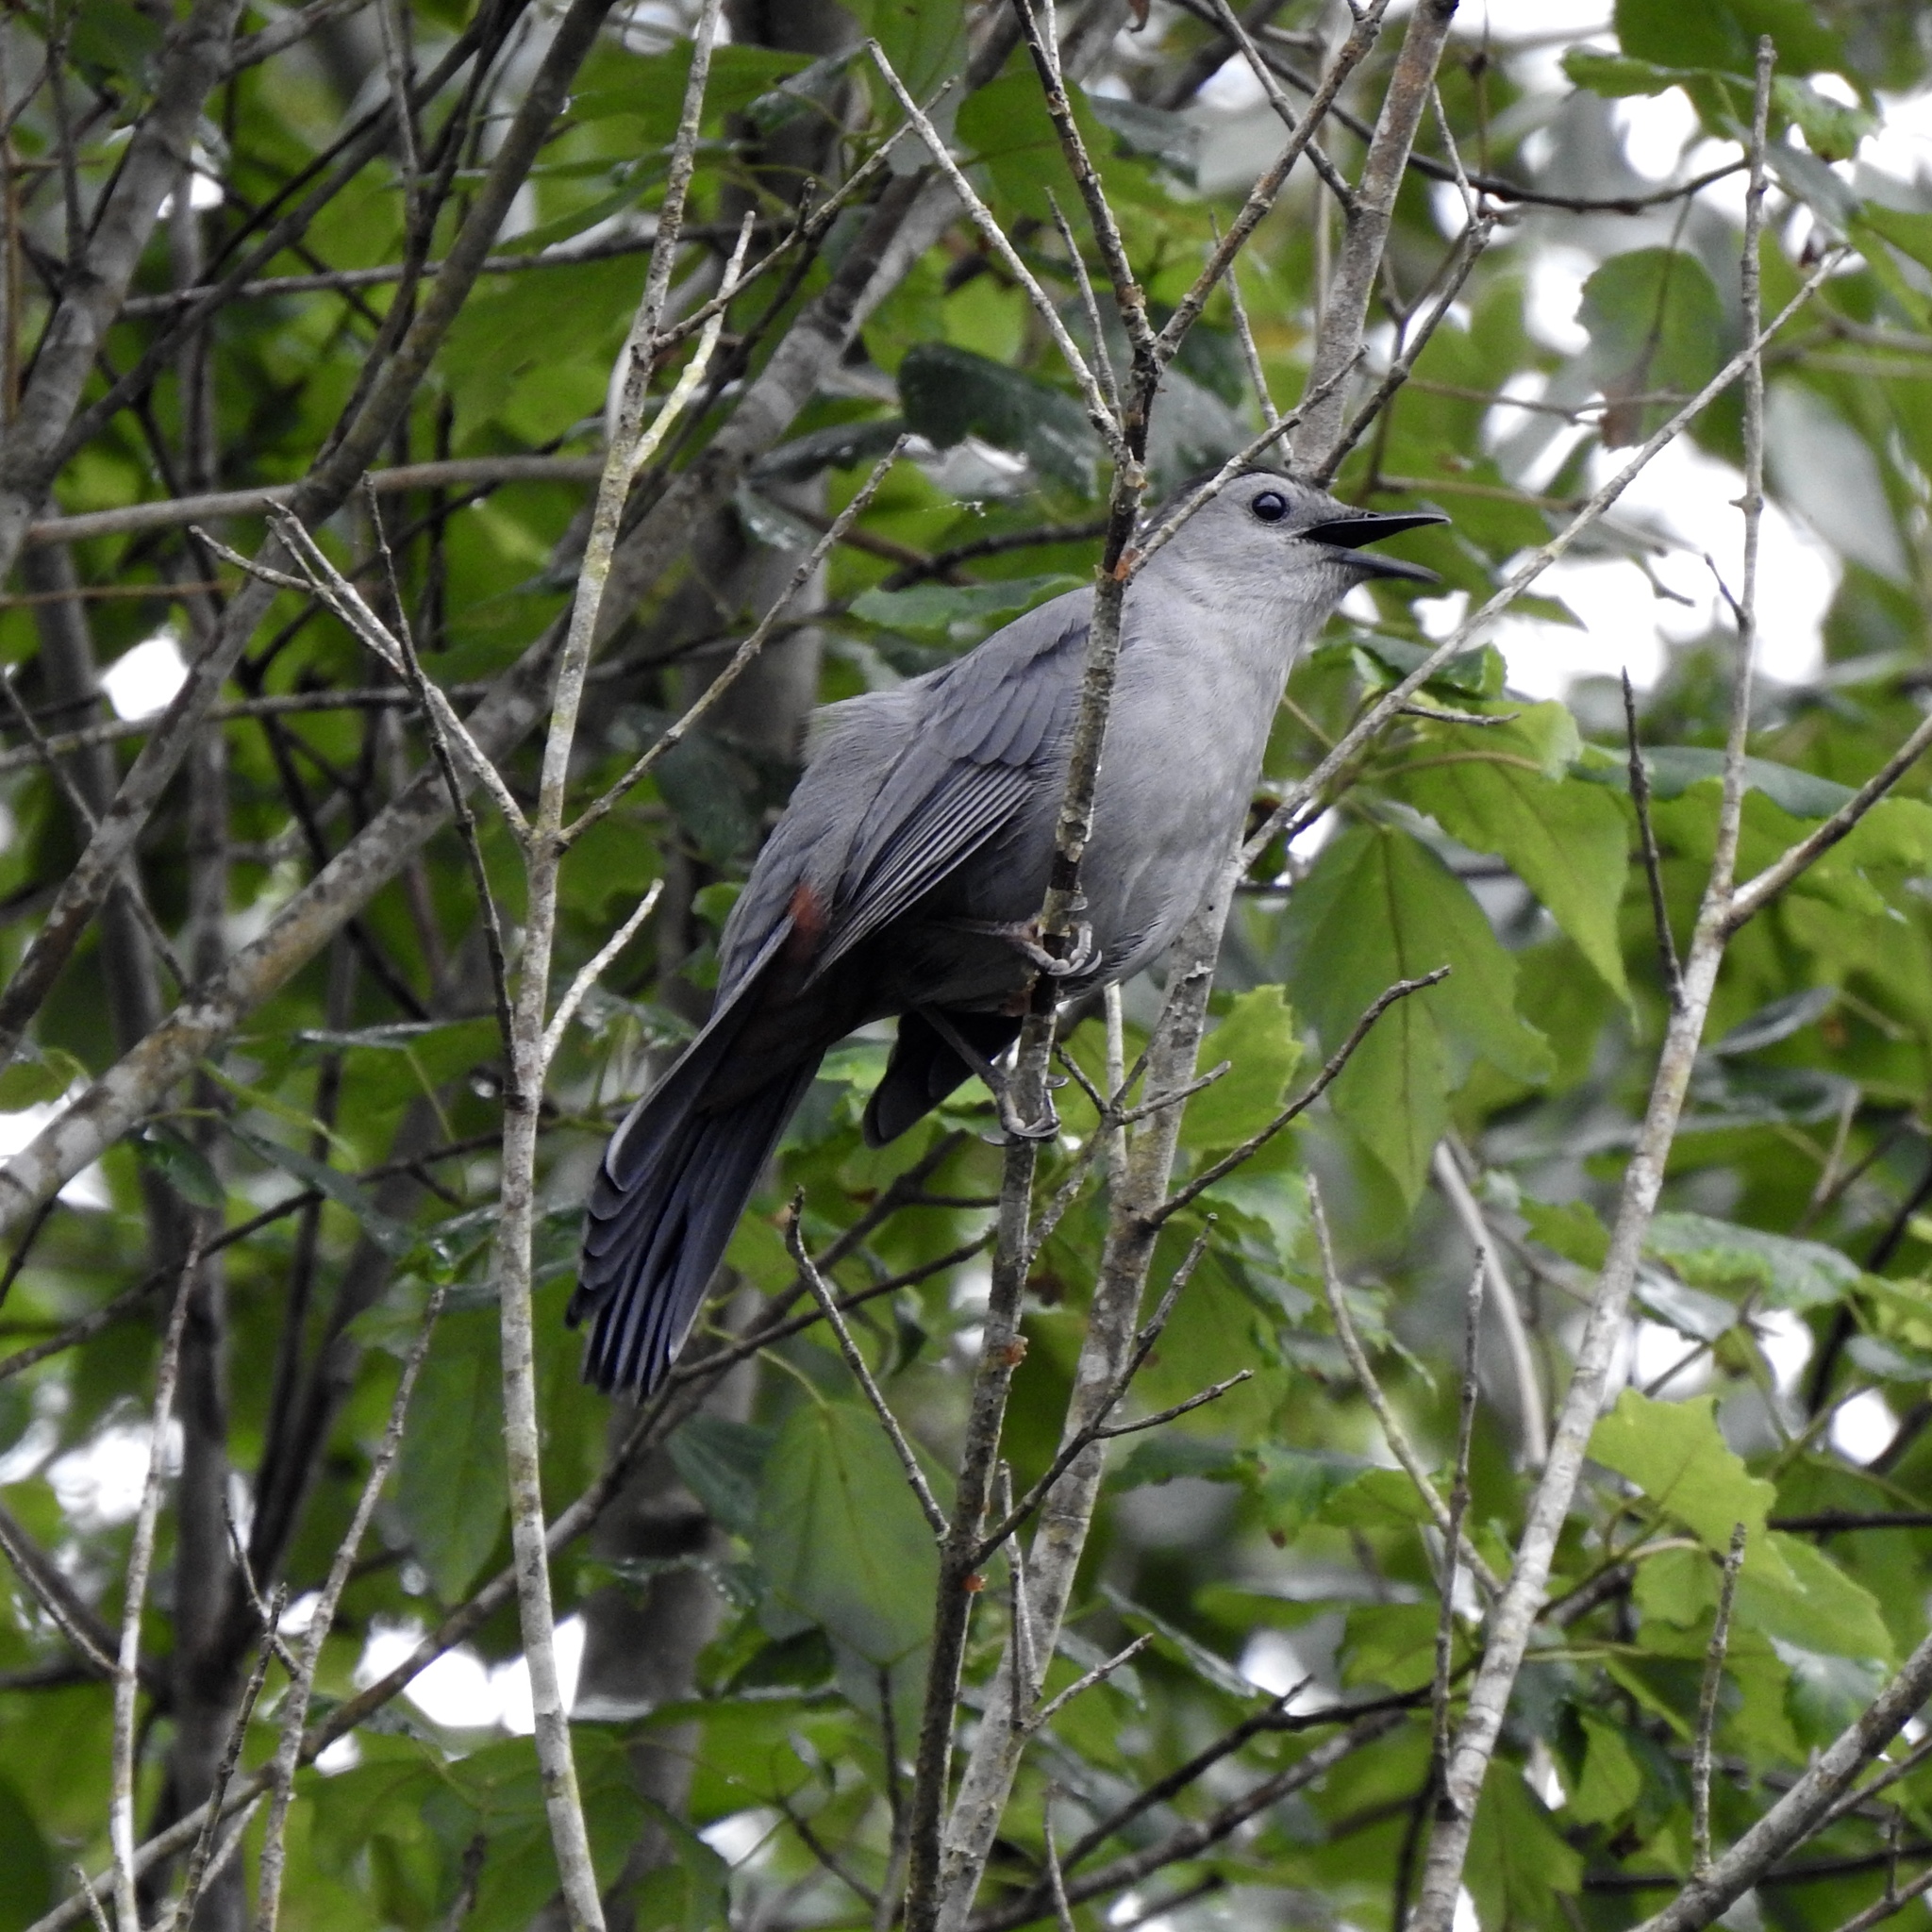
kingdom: Animalia
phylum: Chordata
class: Aves
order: Passeriformes
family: Mimidae
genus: Dumetella
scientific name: Dumetella carolinensis
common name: Gray catbird
